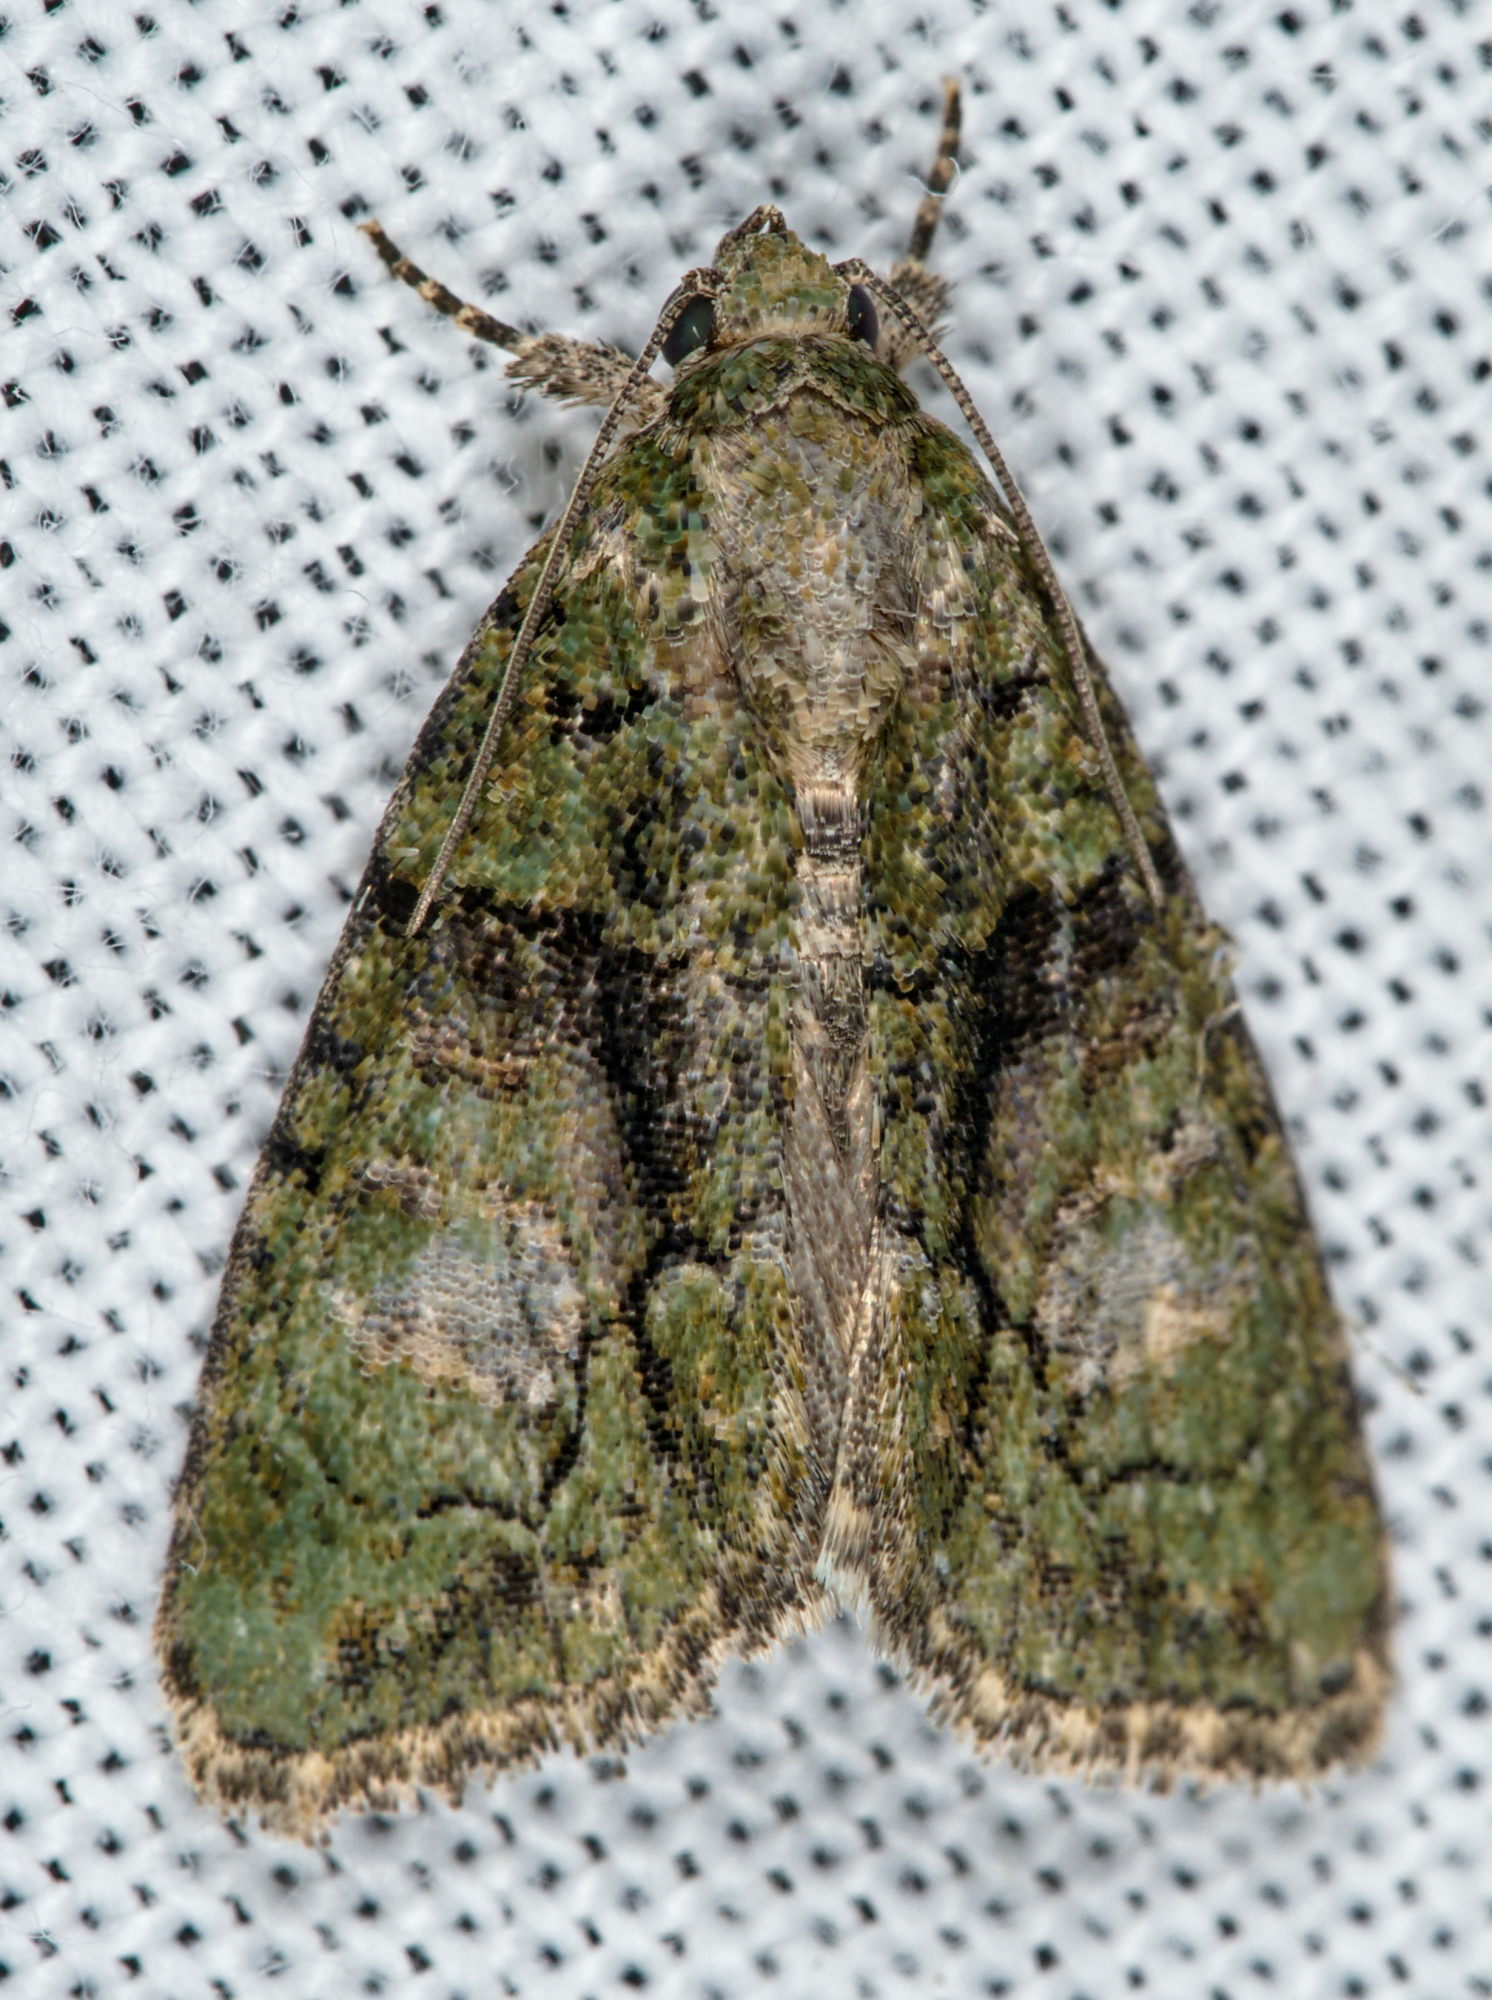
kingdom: Animalia
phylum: Arthropoda
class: Insecta
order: Lepidoptera
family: Noctuidae
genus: Cryphia
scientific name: Cryphia algae
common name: Tree-lichen beauty
